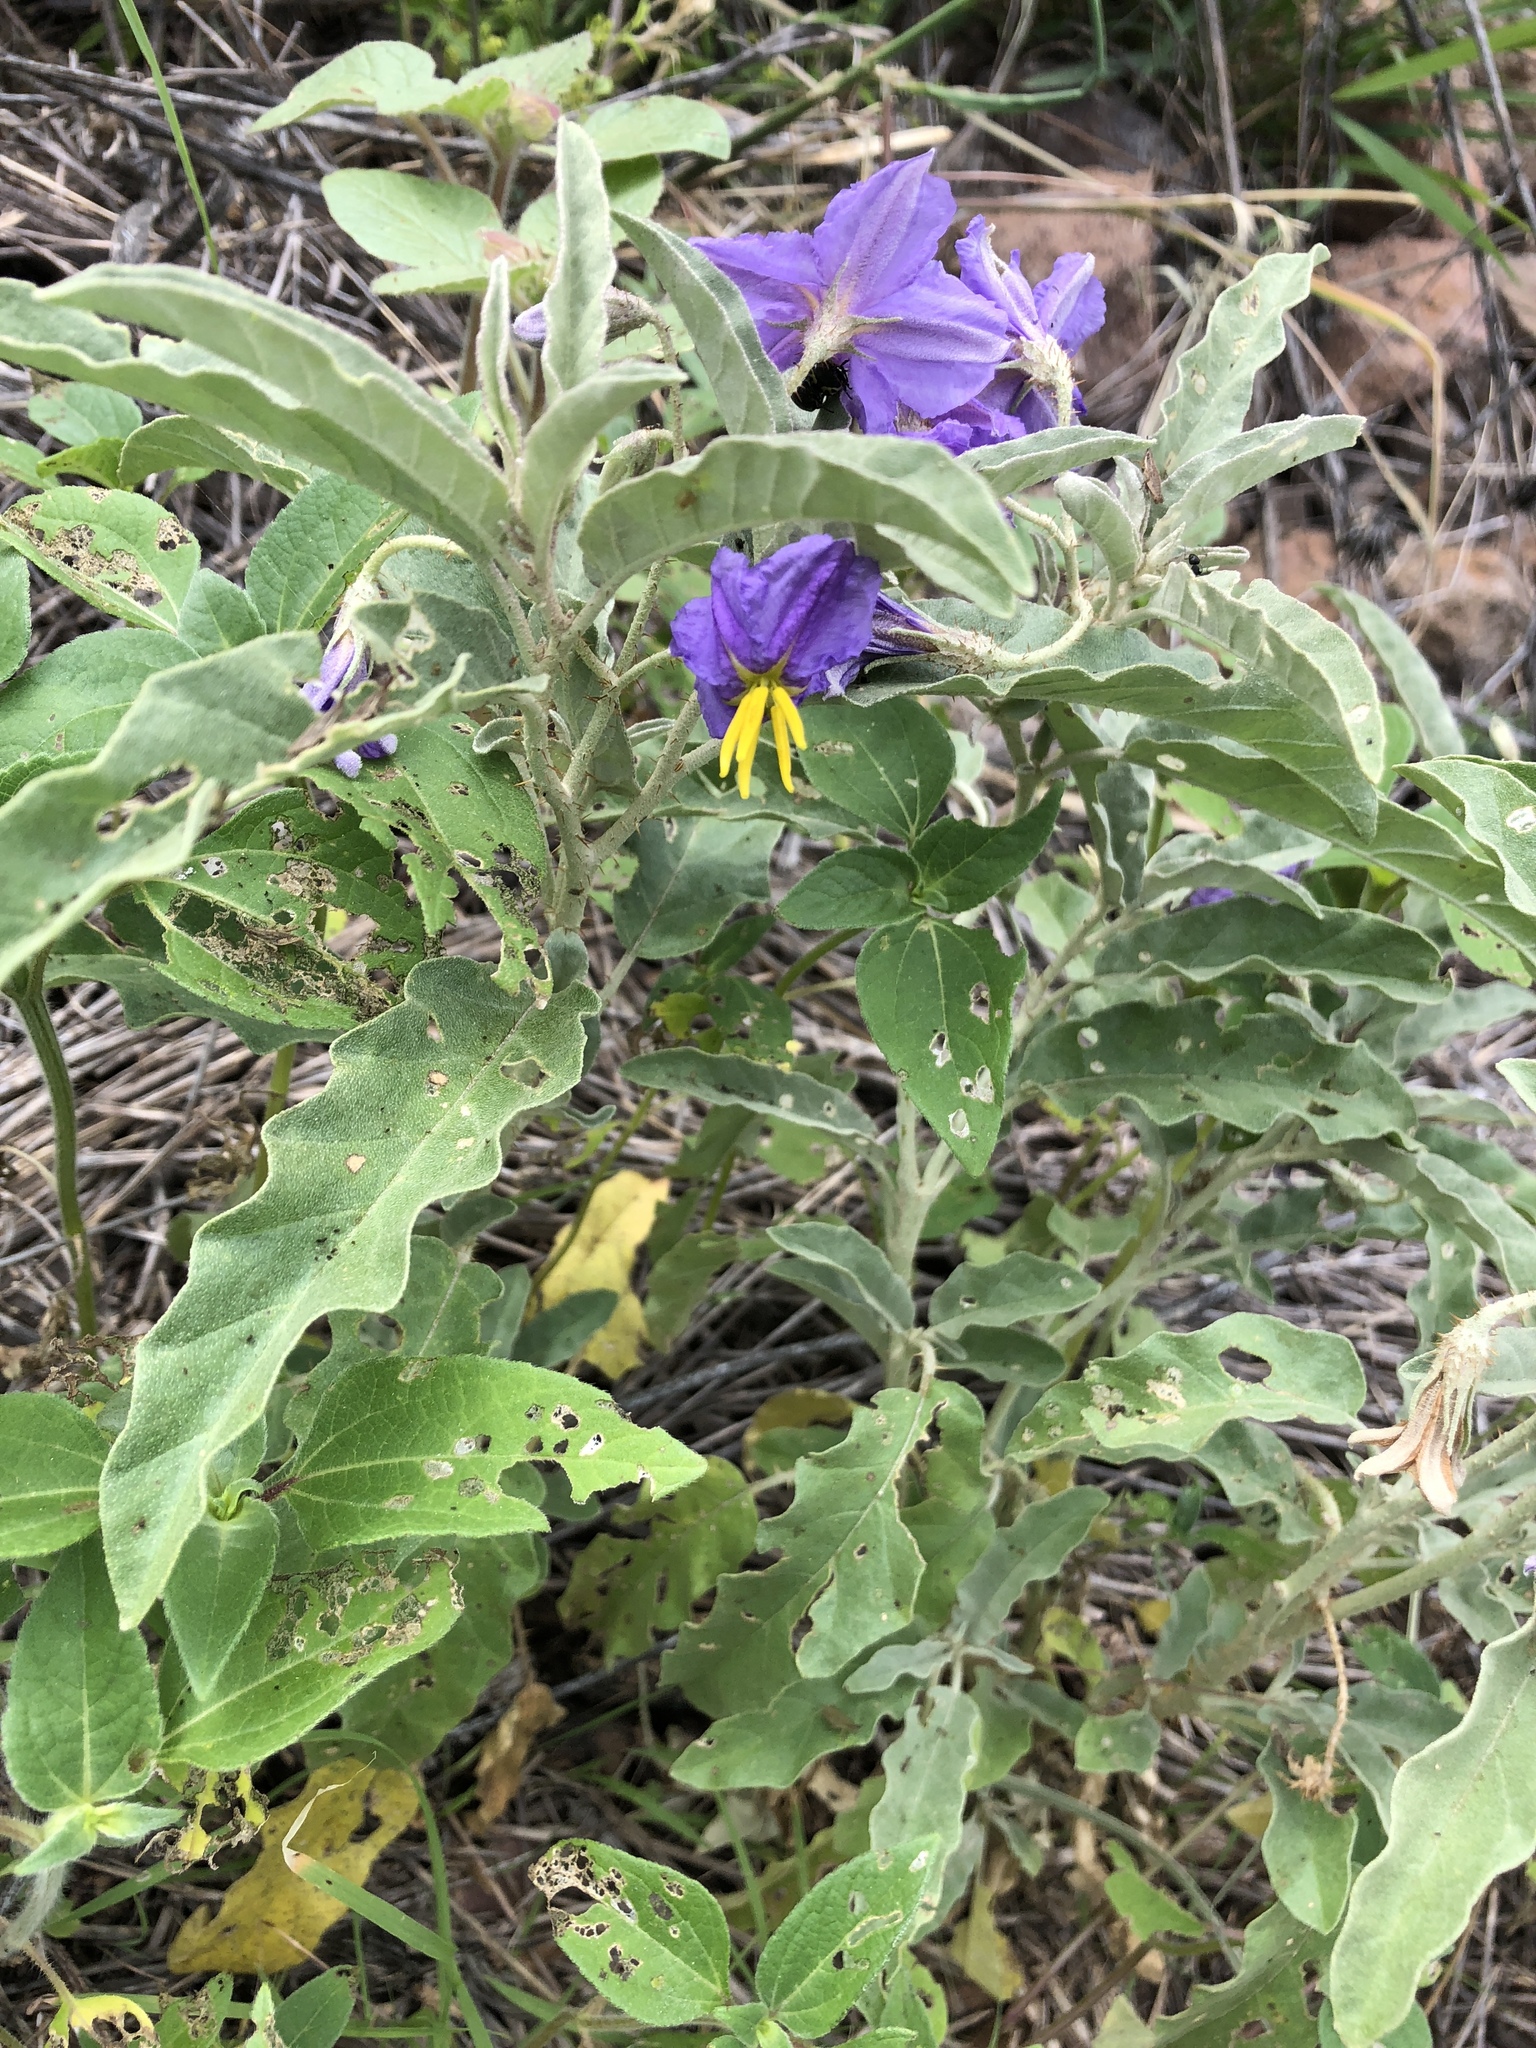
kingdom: Plantae
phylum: Tracheophyta
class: Magnoliopsida
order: Solanales
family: Solanaceae
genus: Solanum
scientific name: Solanum elaeagnifolium
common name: Silverleaf nightshade
